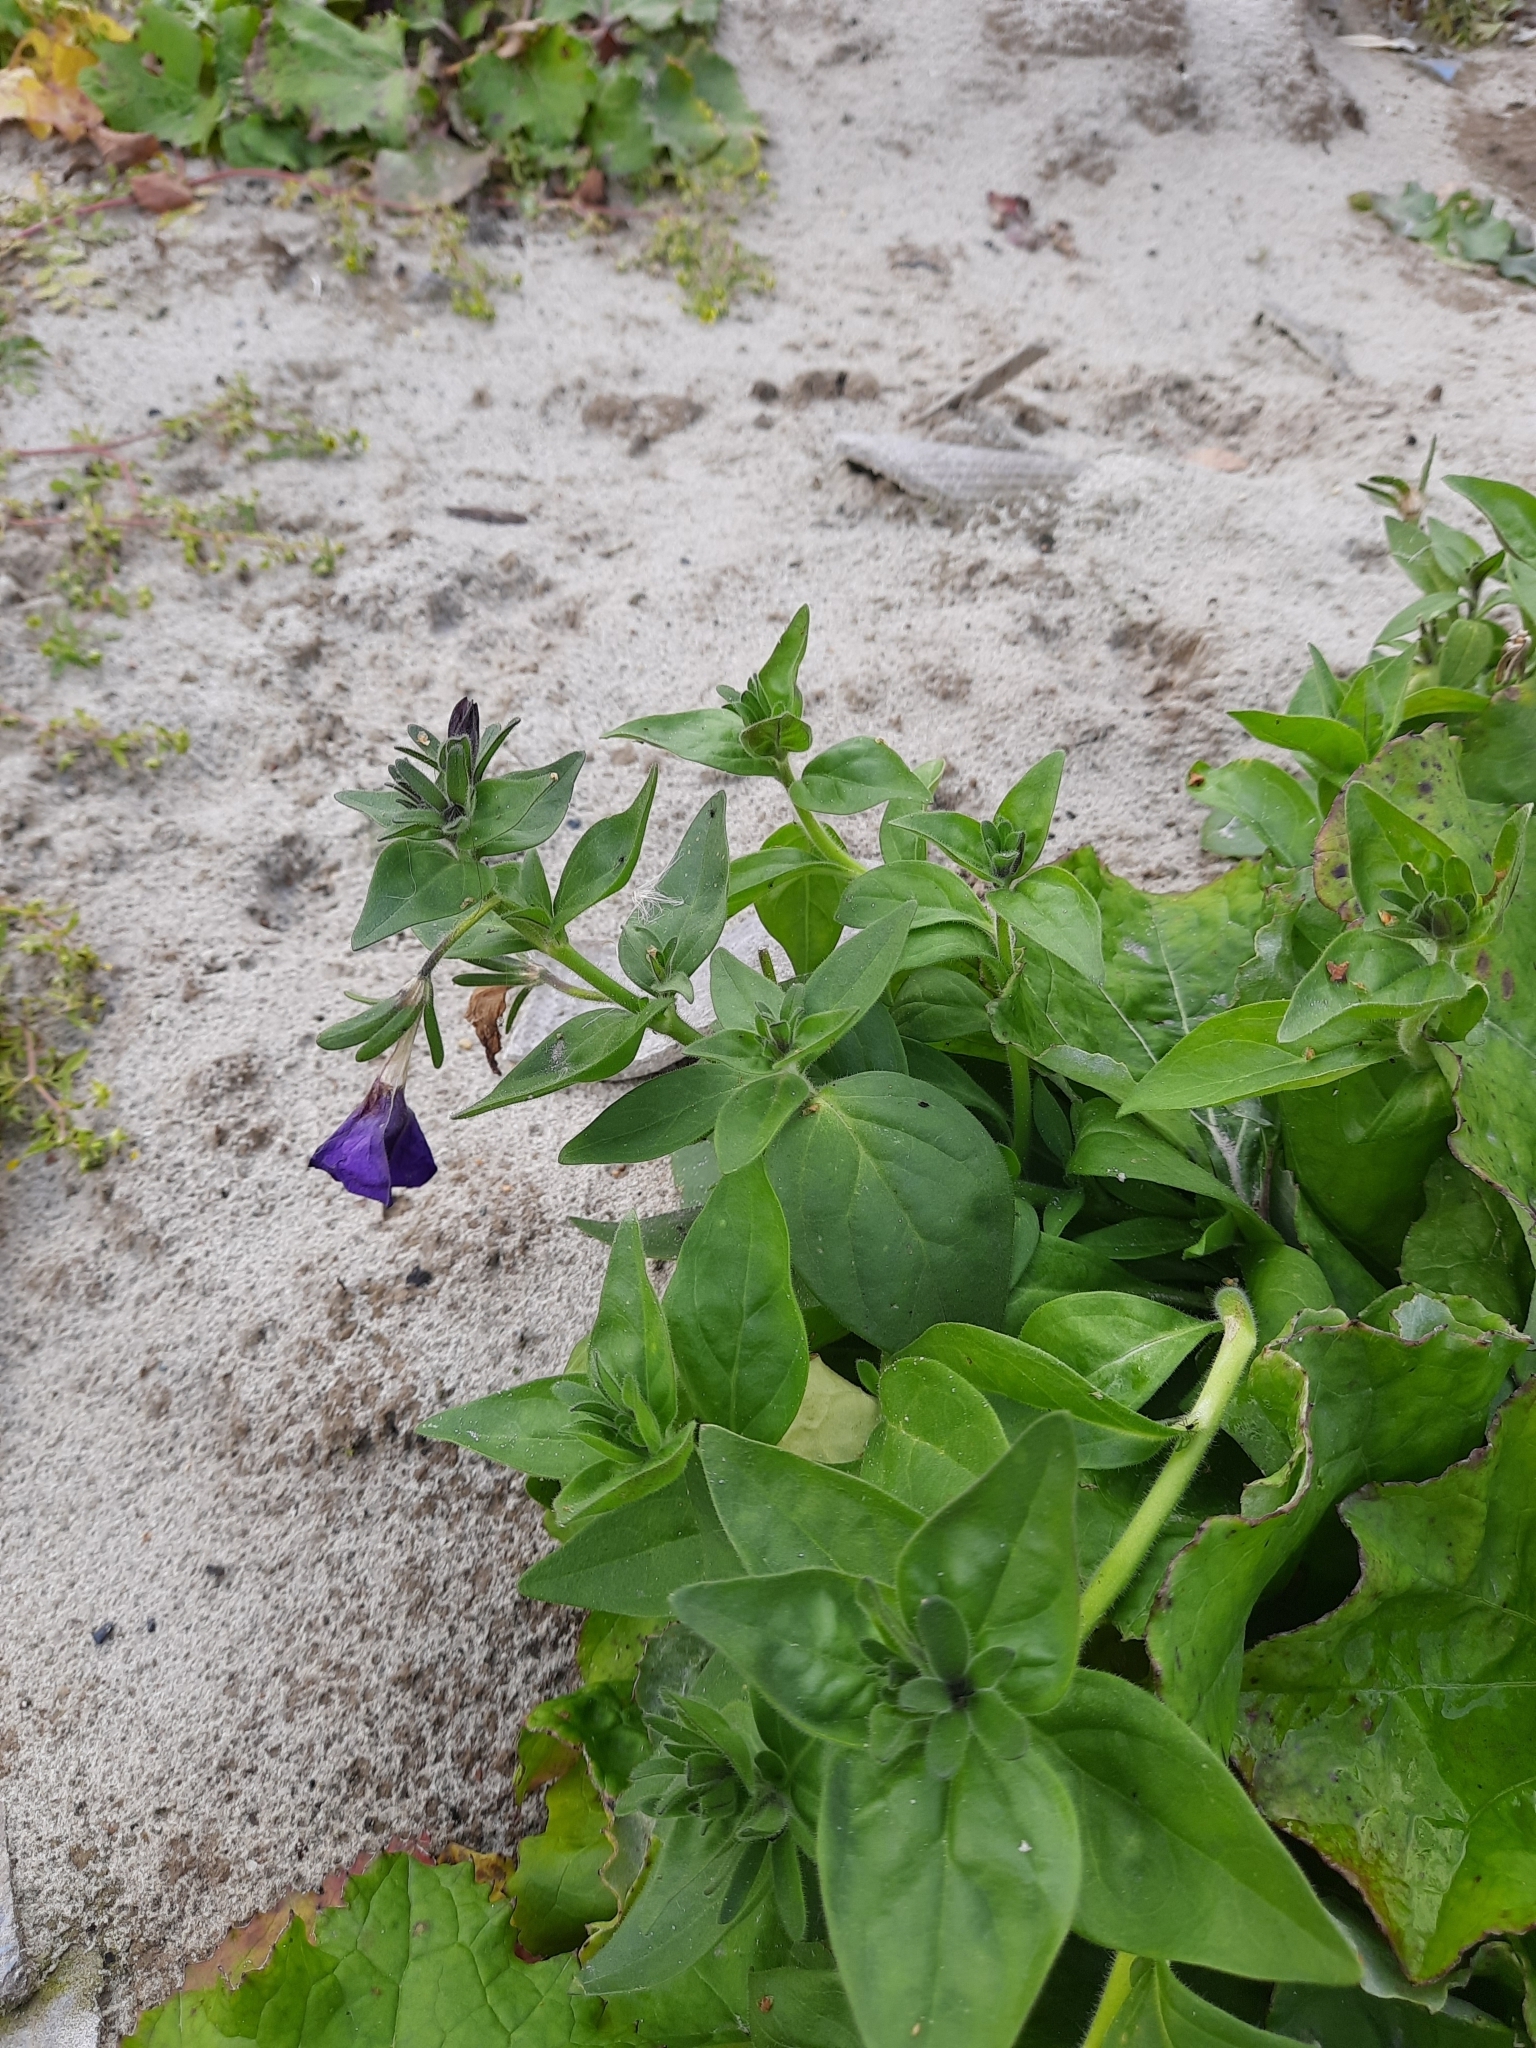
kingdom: Plantae
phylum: Tracheophyta
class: Magnoliopsida
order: Solanales
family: Solanaceae
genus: Petunia
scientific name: Petunia atkinsiana
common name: Petunia
